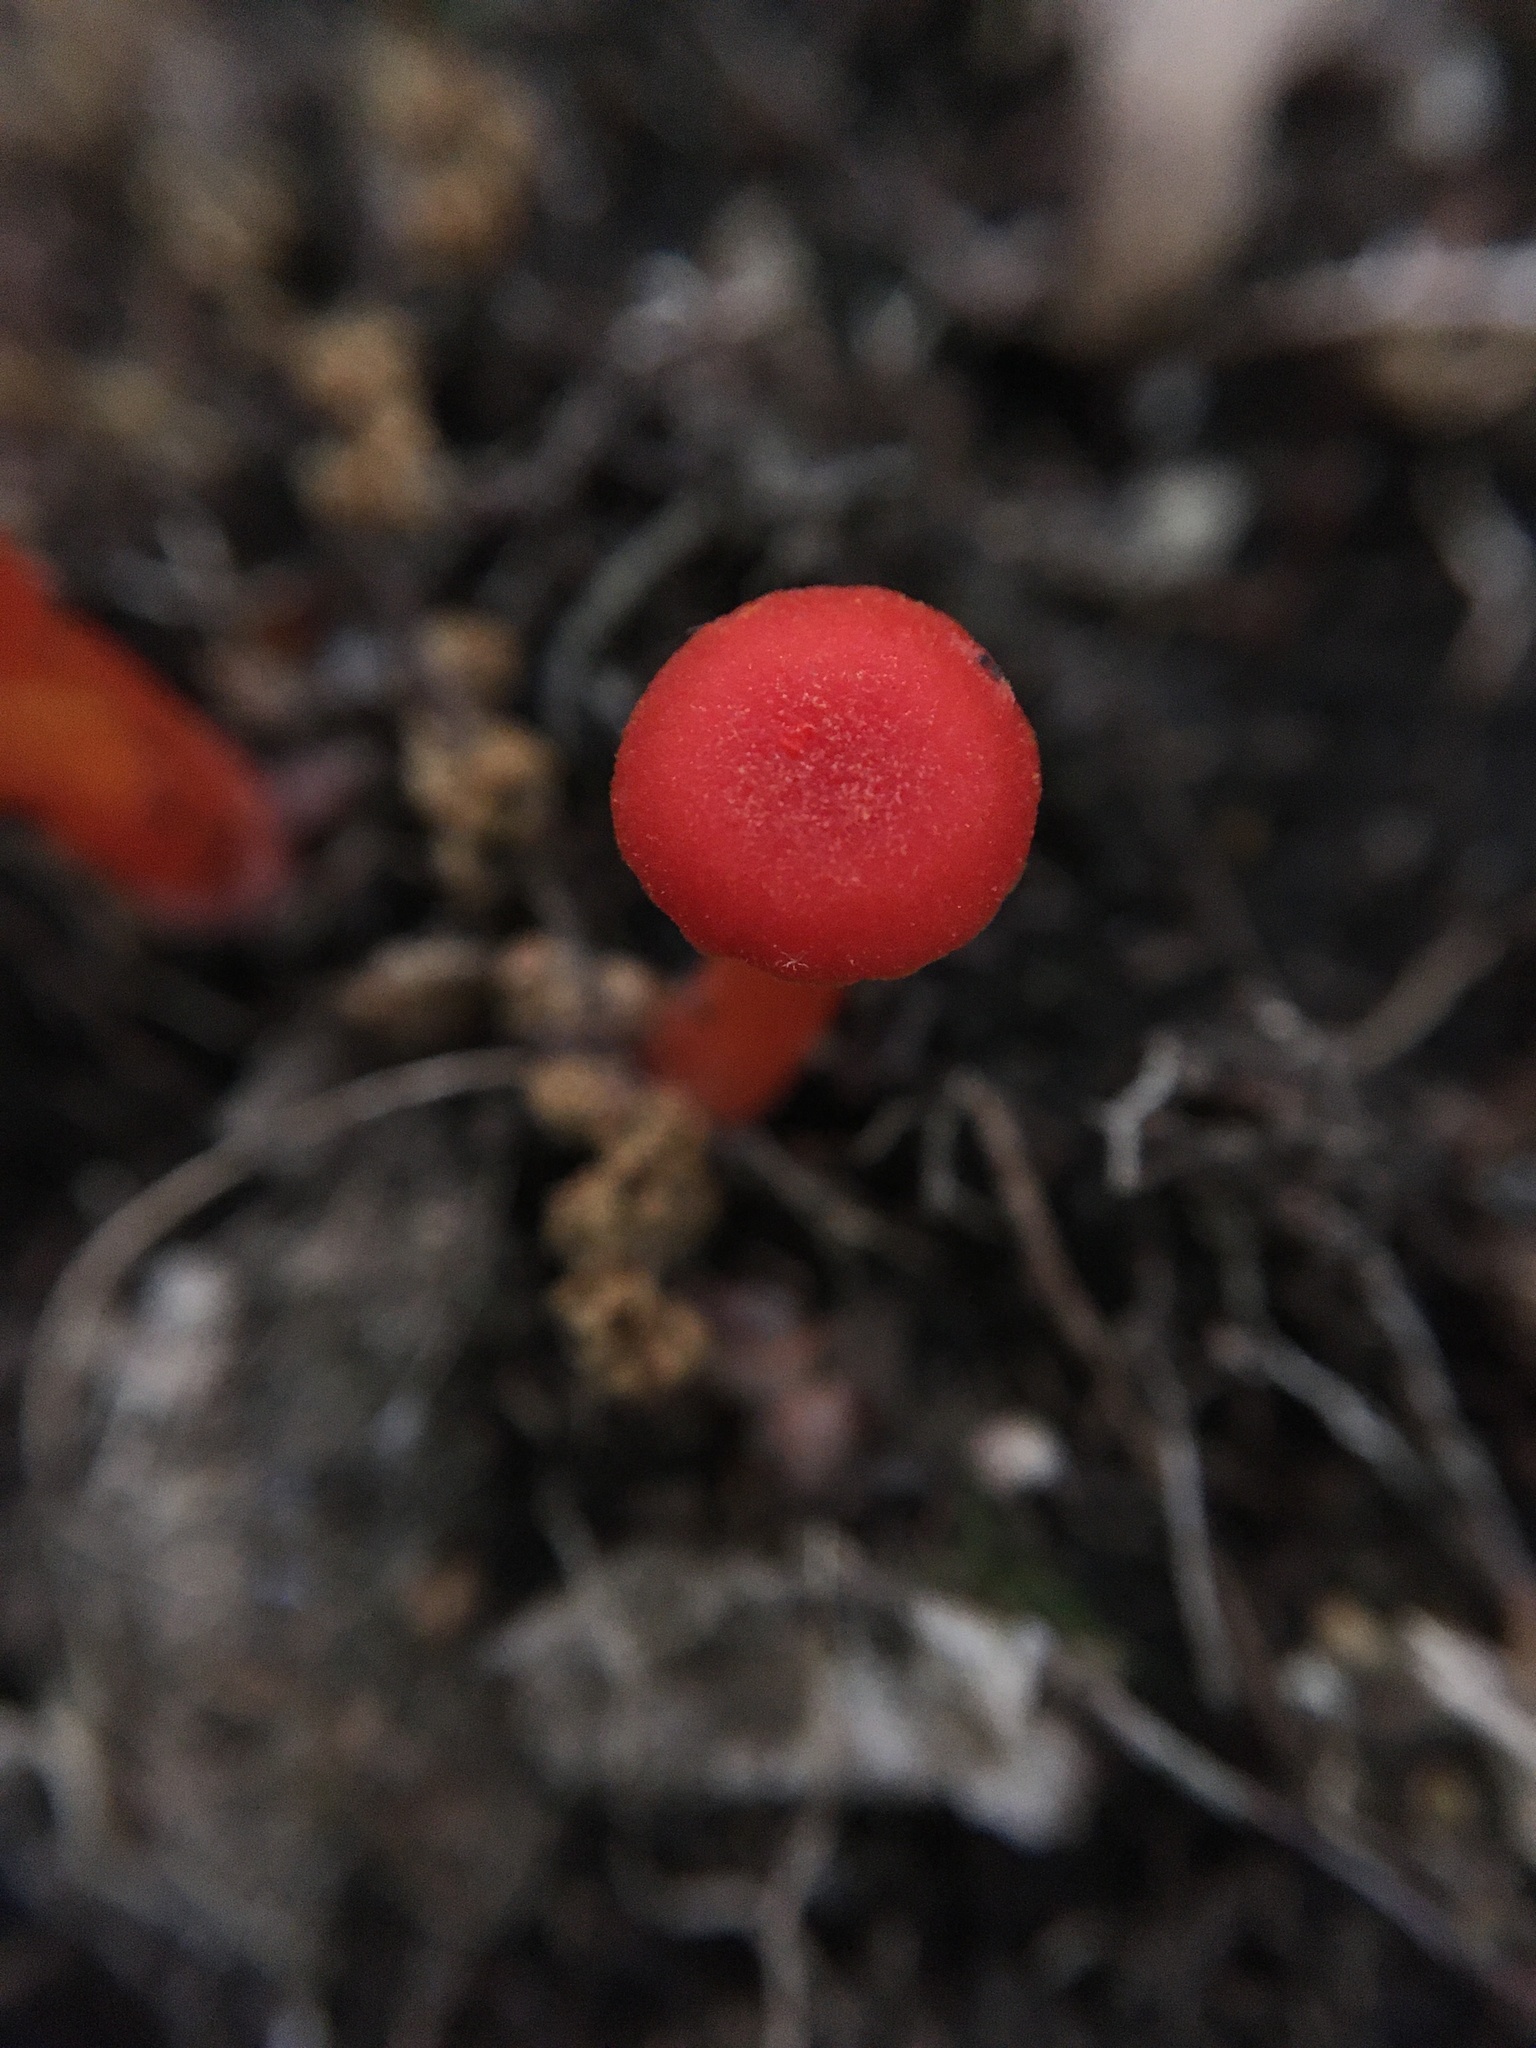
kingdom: Fungi
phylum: Basidiomycota
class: Agaricomycetes
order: Agaricales
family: Hygrophoraceae
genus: Hygrocybe
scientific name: Hygrocybe cantharellus
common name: Goblet waxcap
